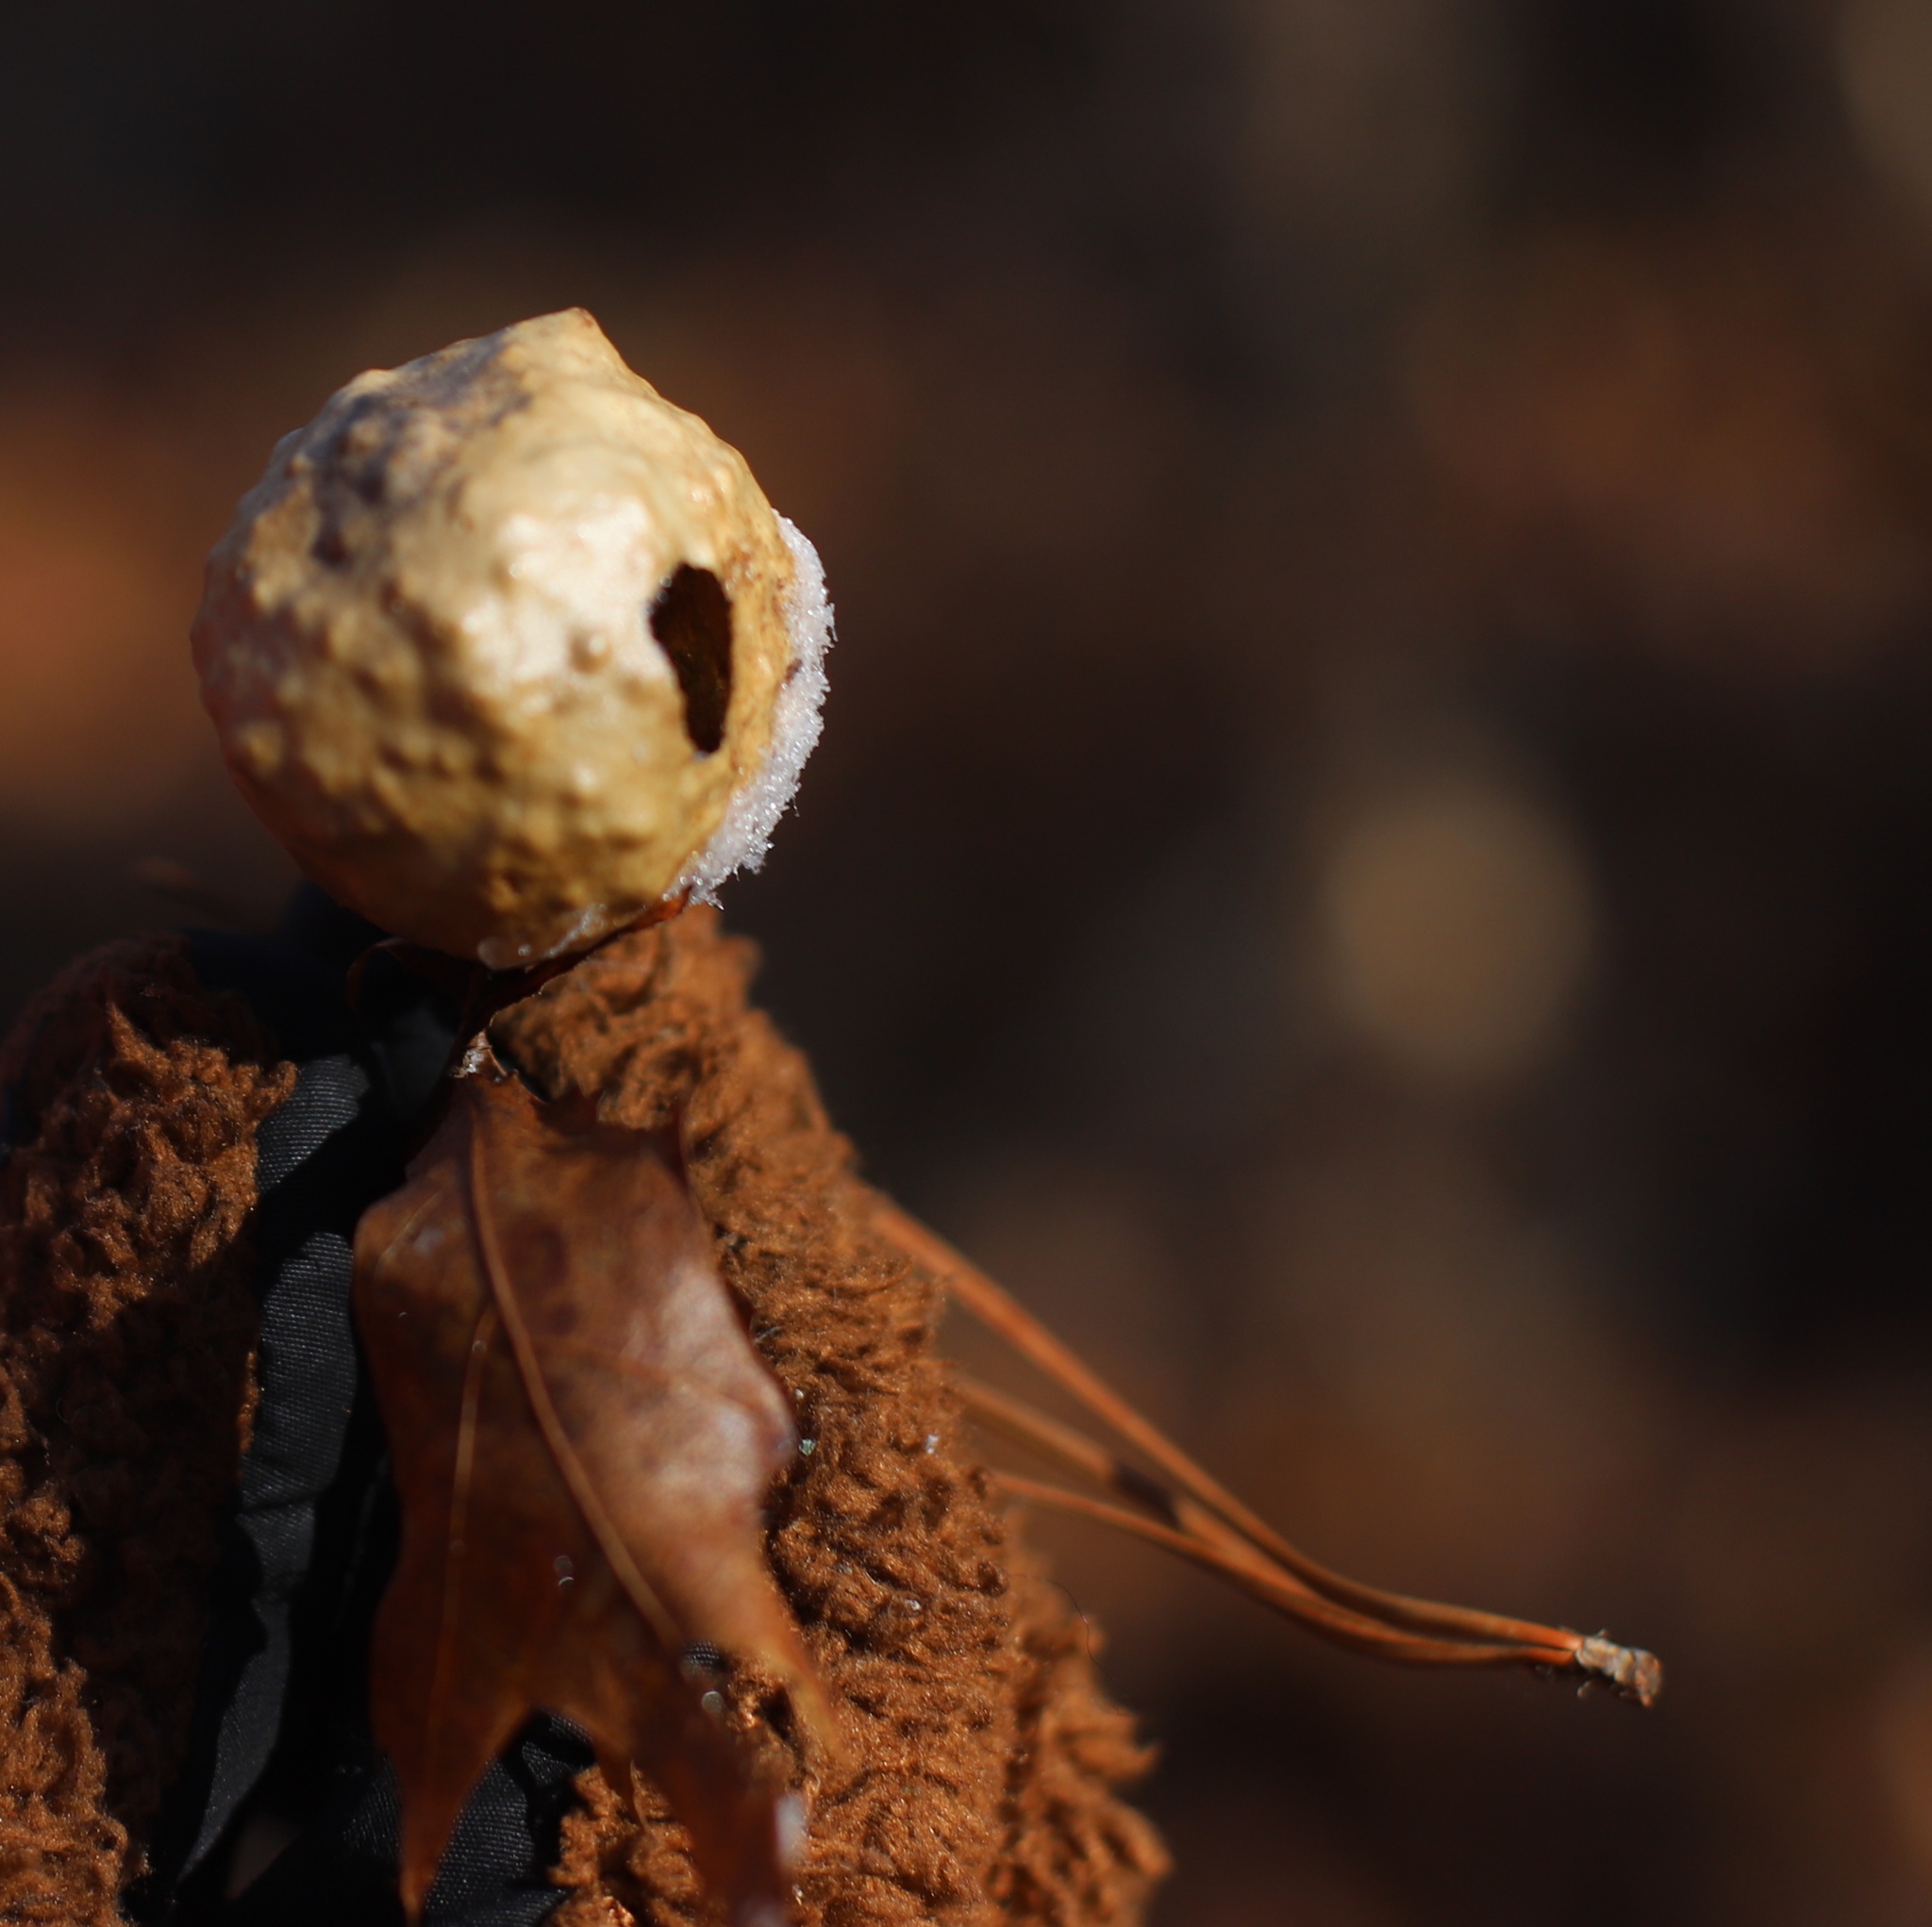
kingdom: Animalia
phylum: Arthropoda
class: Insecta
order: Hymenoptera
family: Cynipidae
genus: Amphibolips
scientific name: Amphibolips
